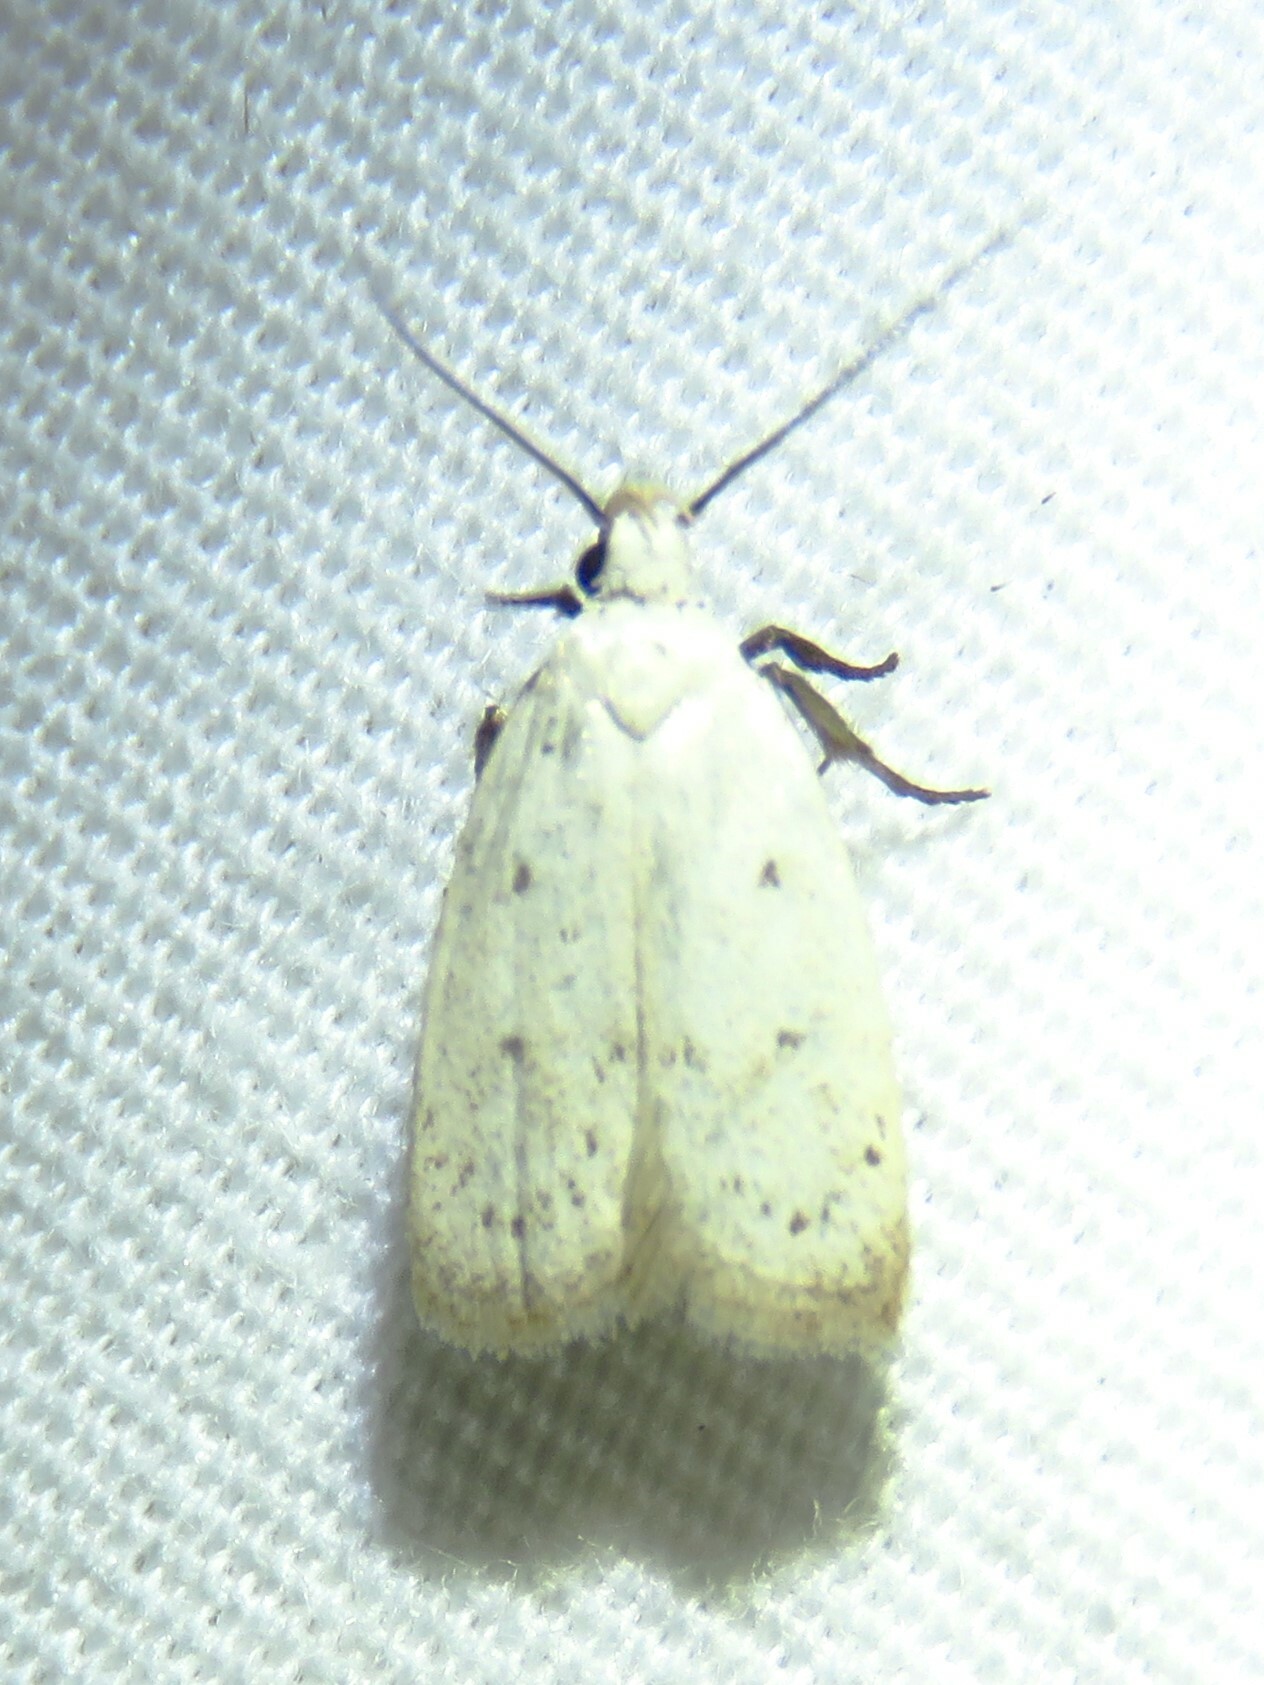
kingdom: Animalia
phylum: Arthropoda
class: Insecta
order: Lepidoptera
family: Oecophoridae
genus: Inga
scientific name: Inga cretacea
